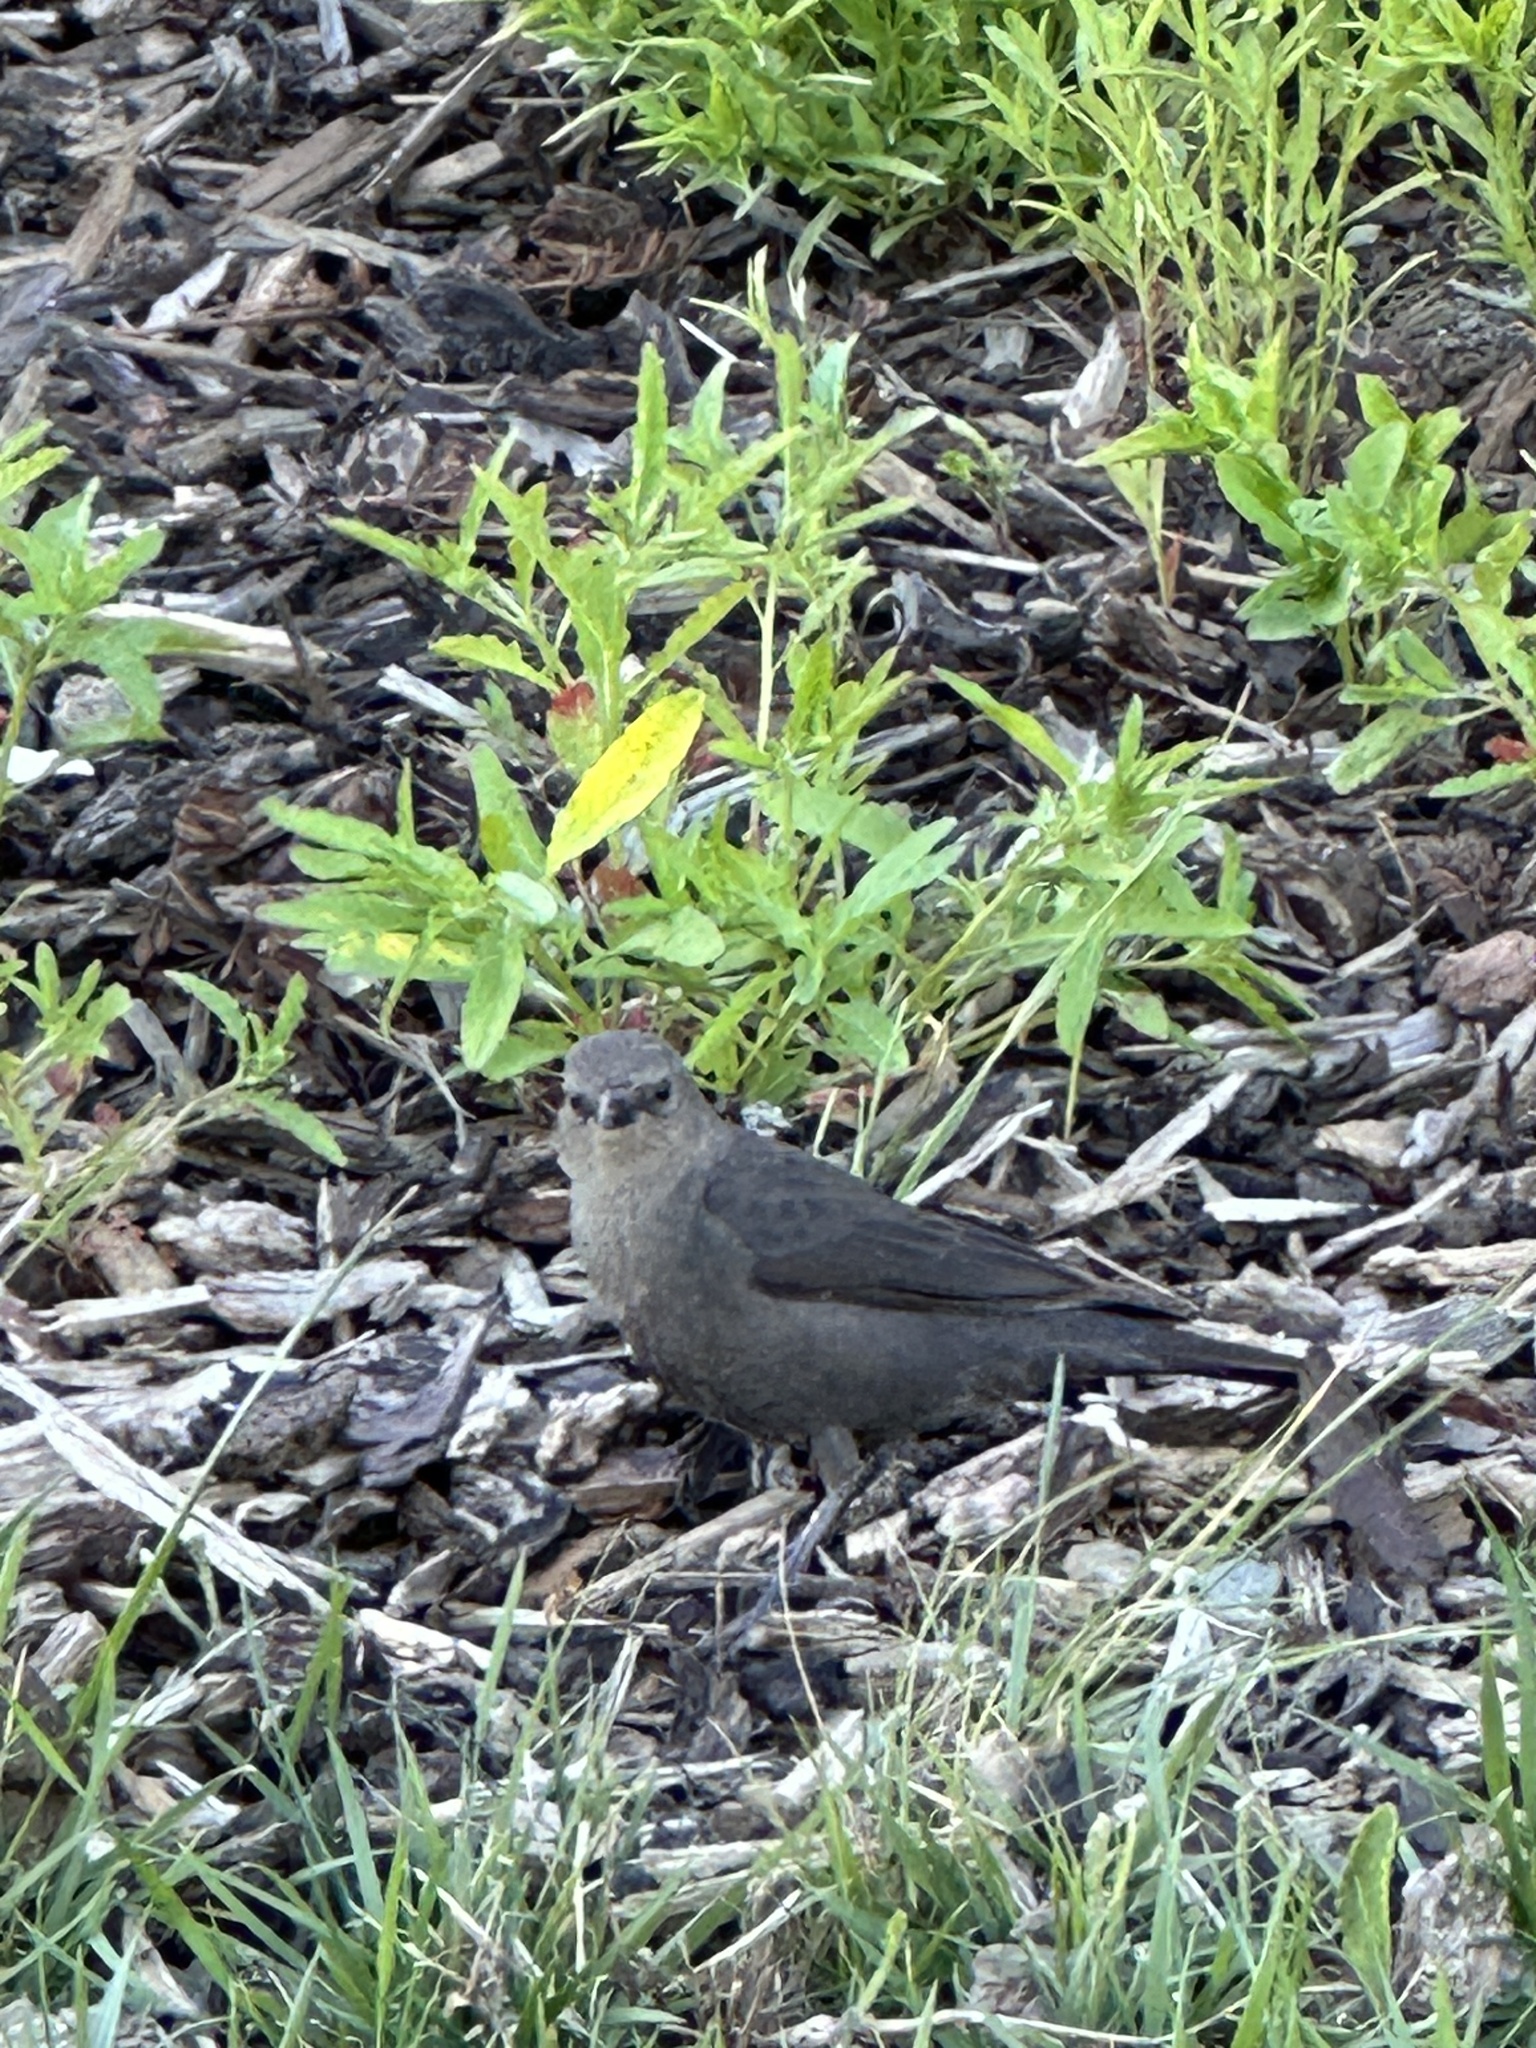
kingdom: Animalia
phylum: Chordata
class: Aves
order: Passeriformes
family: Icteridae
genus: Euphagus
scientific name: Euphagus cyanocephalus
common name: Brewer's blackbird
